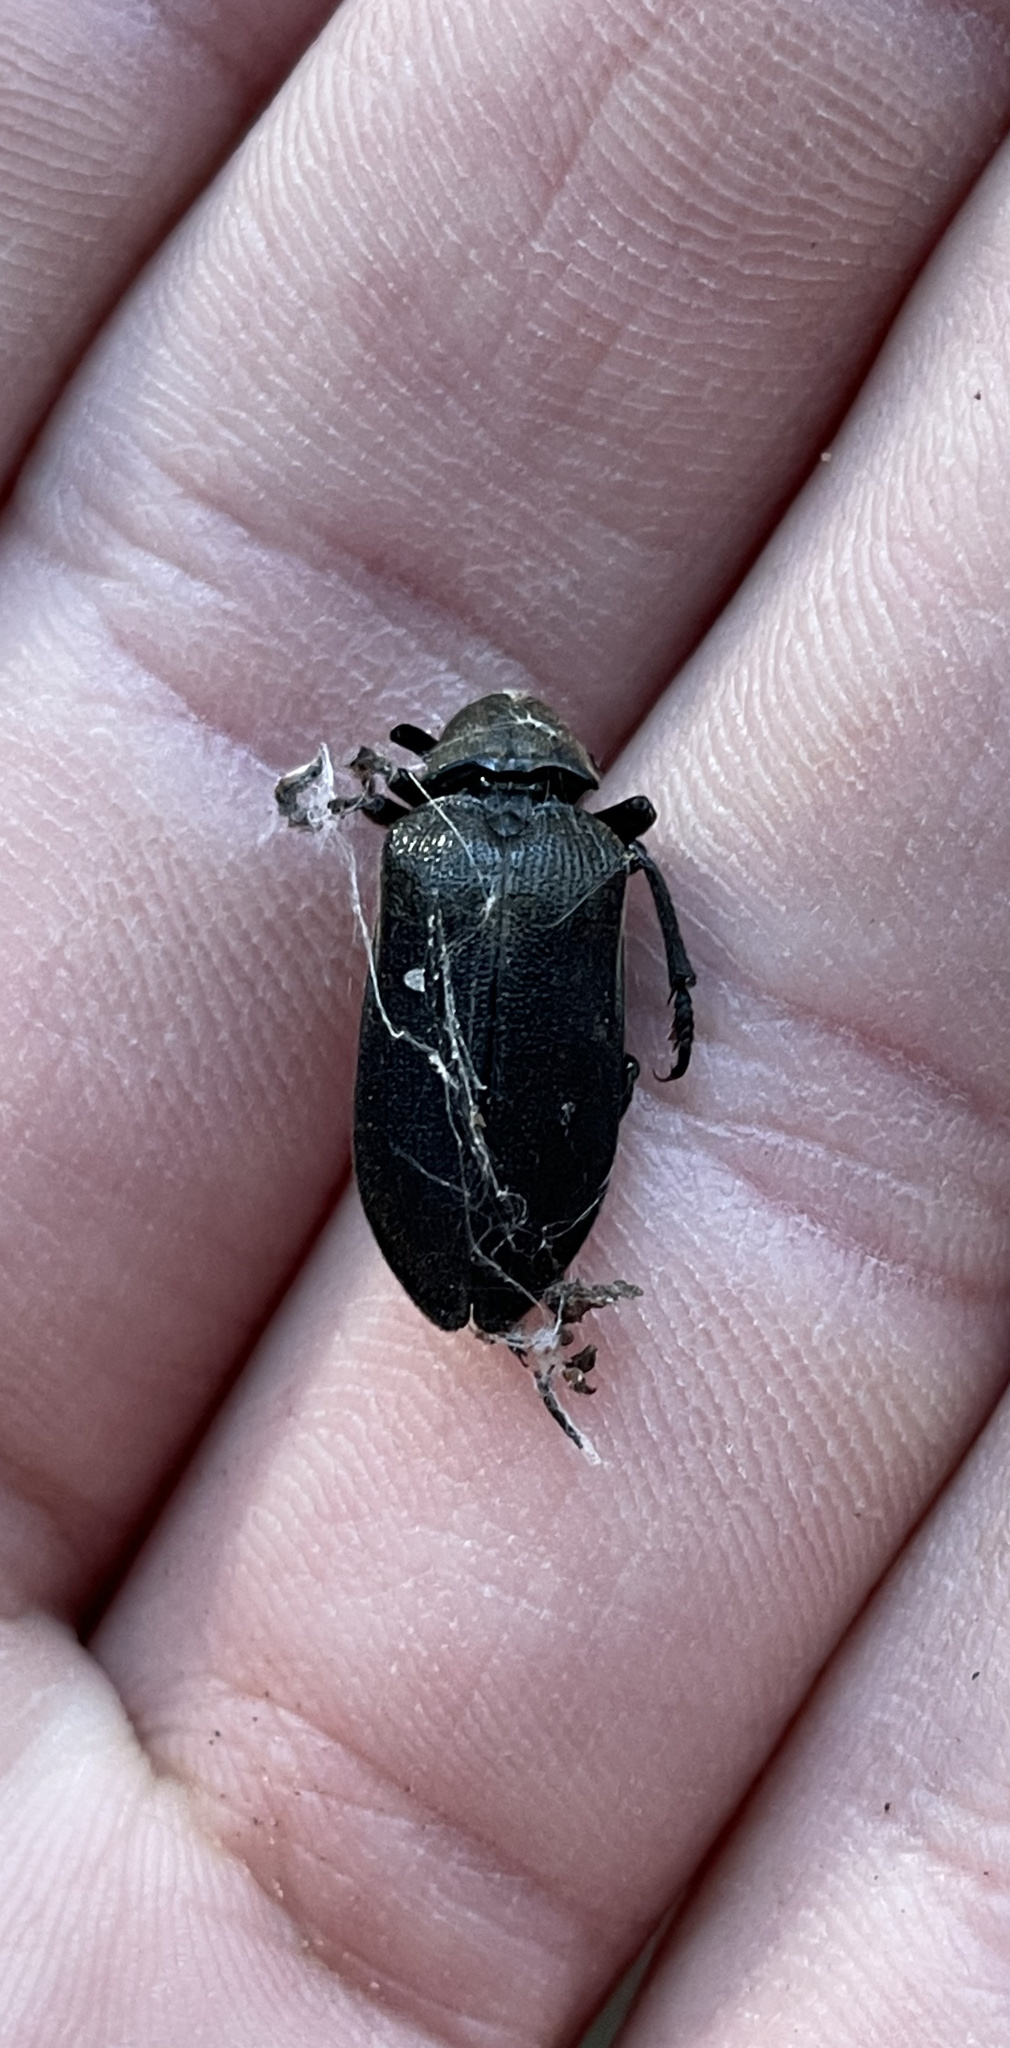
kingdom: Animalia
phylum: Arthropoda
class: Insecta
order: Coleoptera
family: Rhipiceridae
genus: Sandalus
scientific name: Sandalus niger
